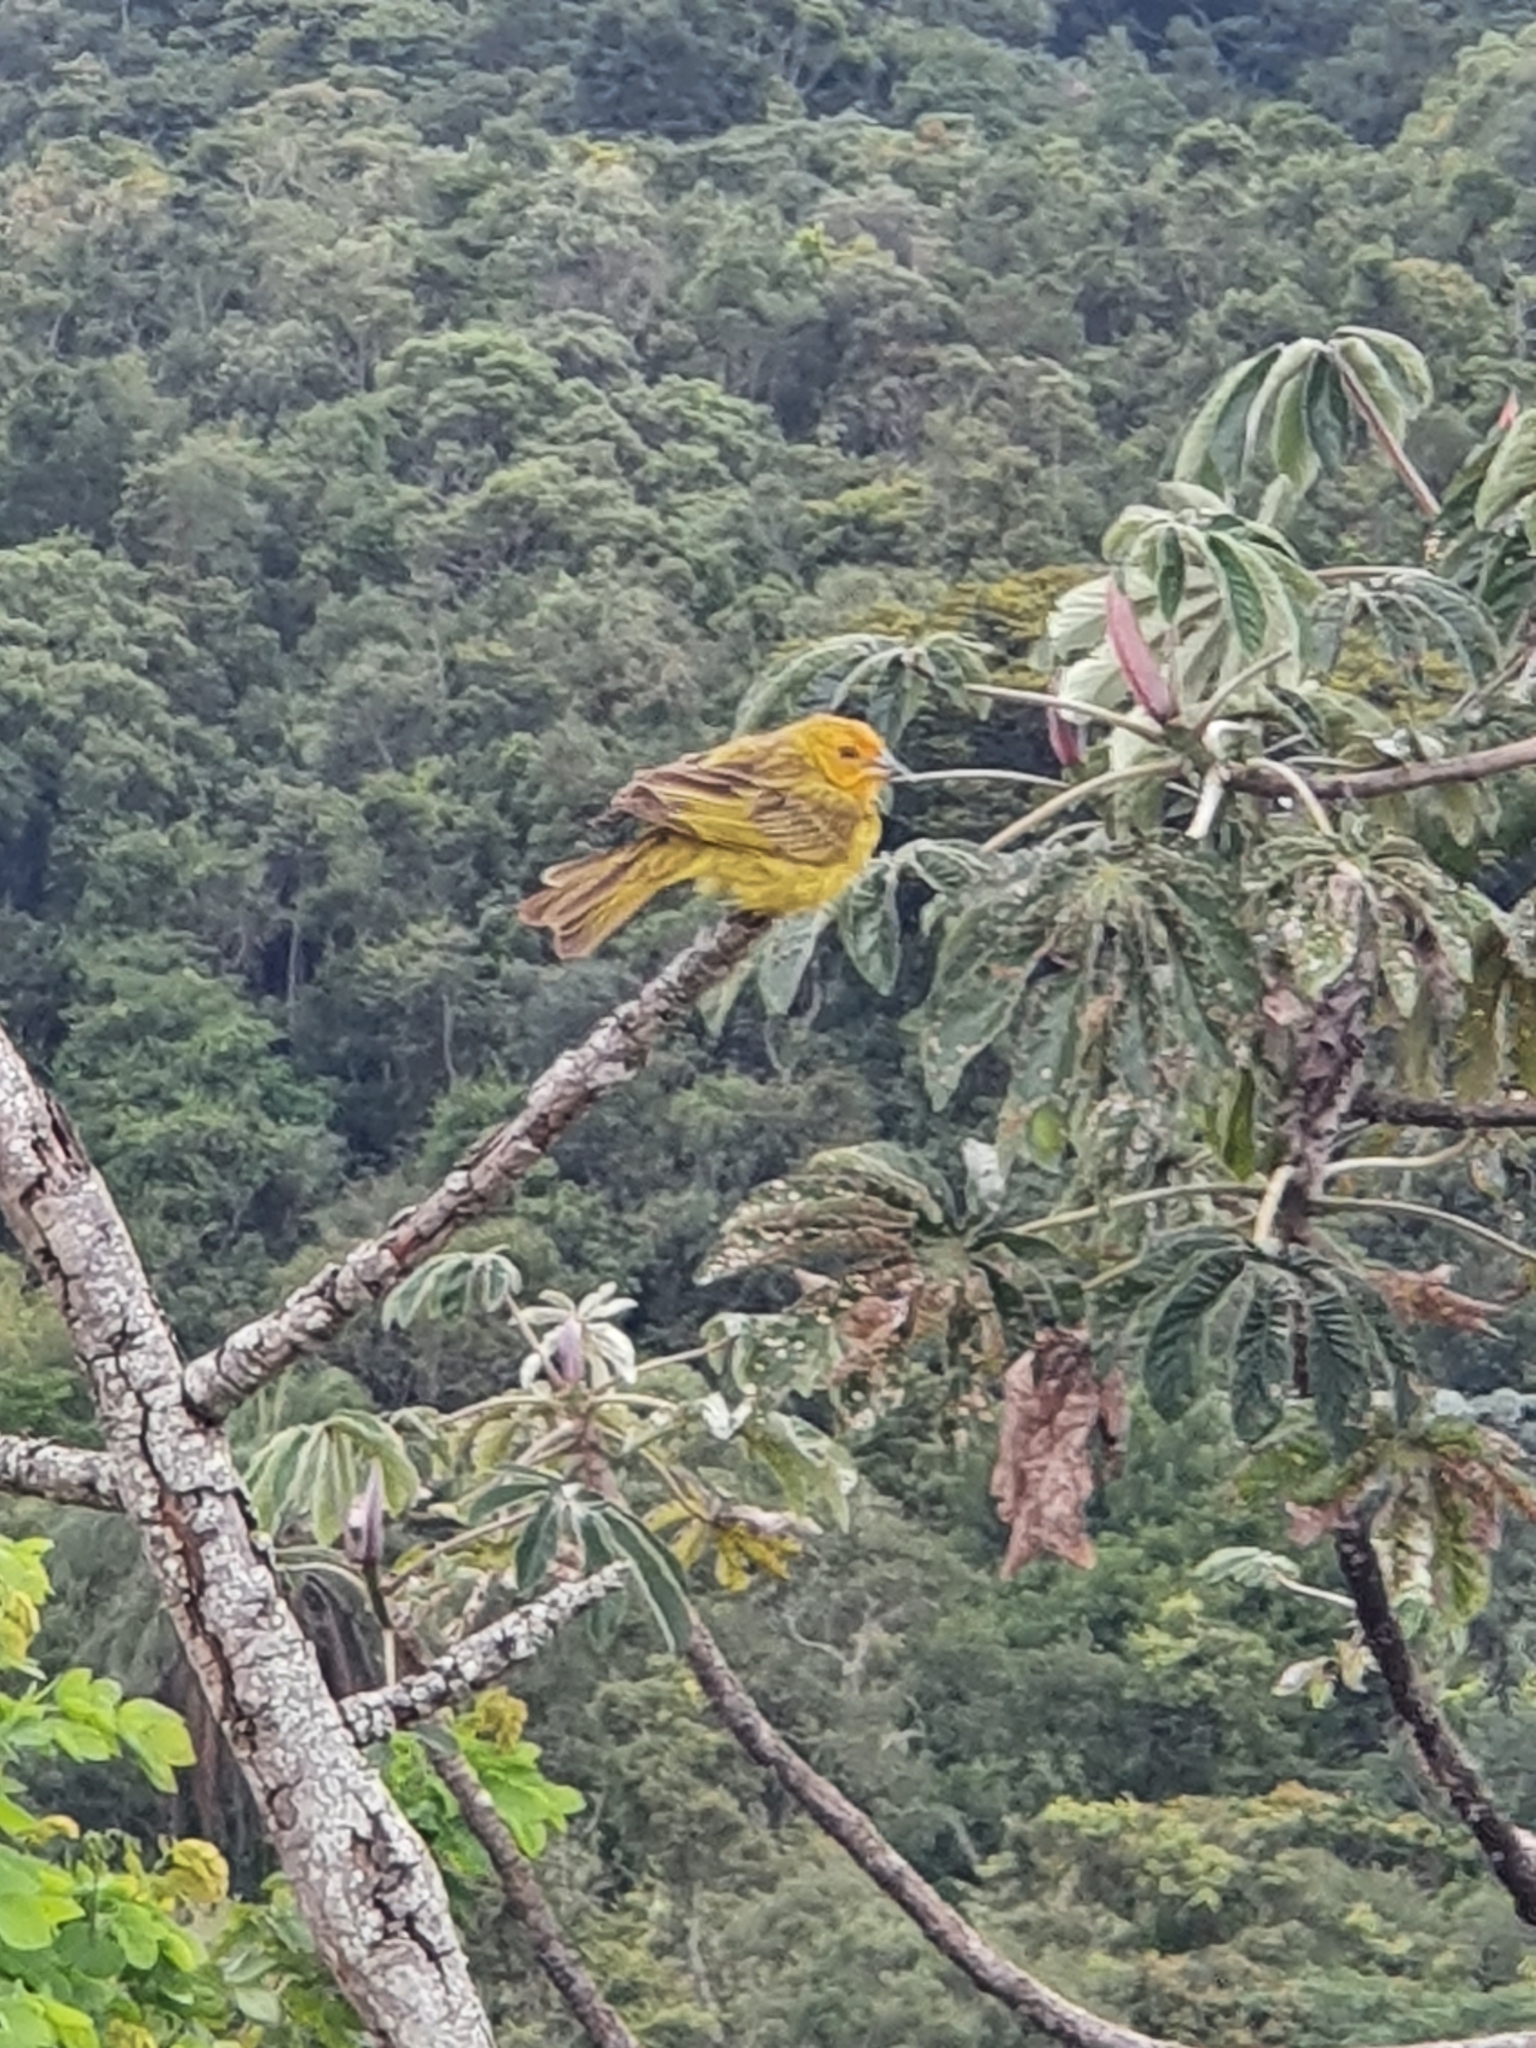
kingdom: Animalia
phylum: Chordata
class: Aves
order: Passeriformes
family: Thraupidae
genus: Sicalis
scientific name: Sicalis flaveola
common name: Saffron finch
